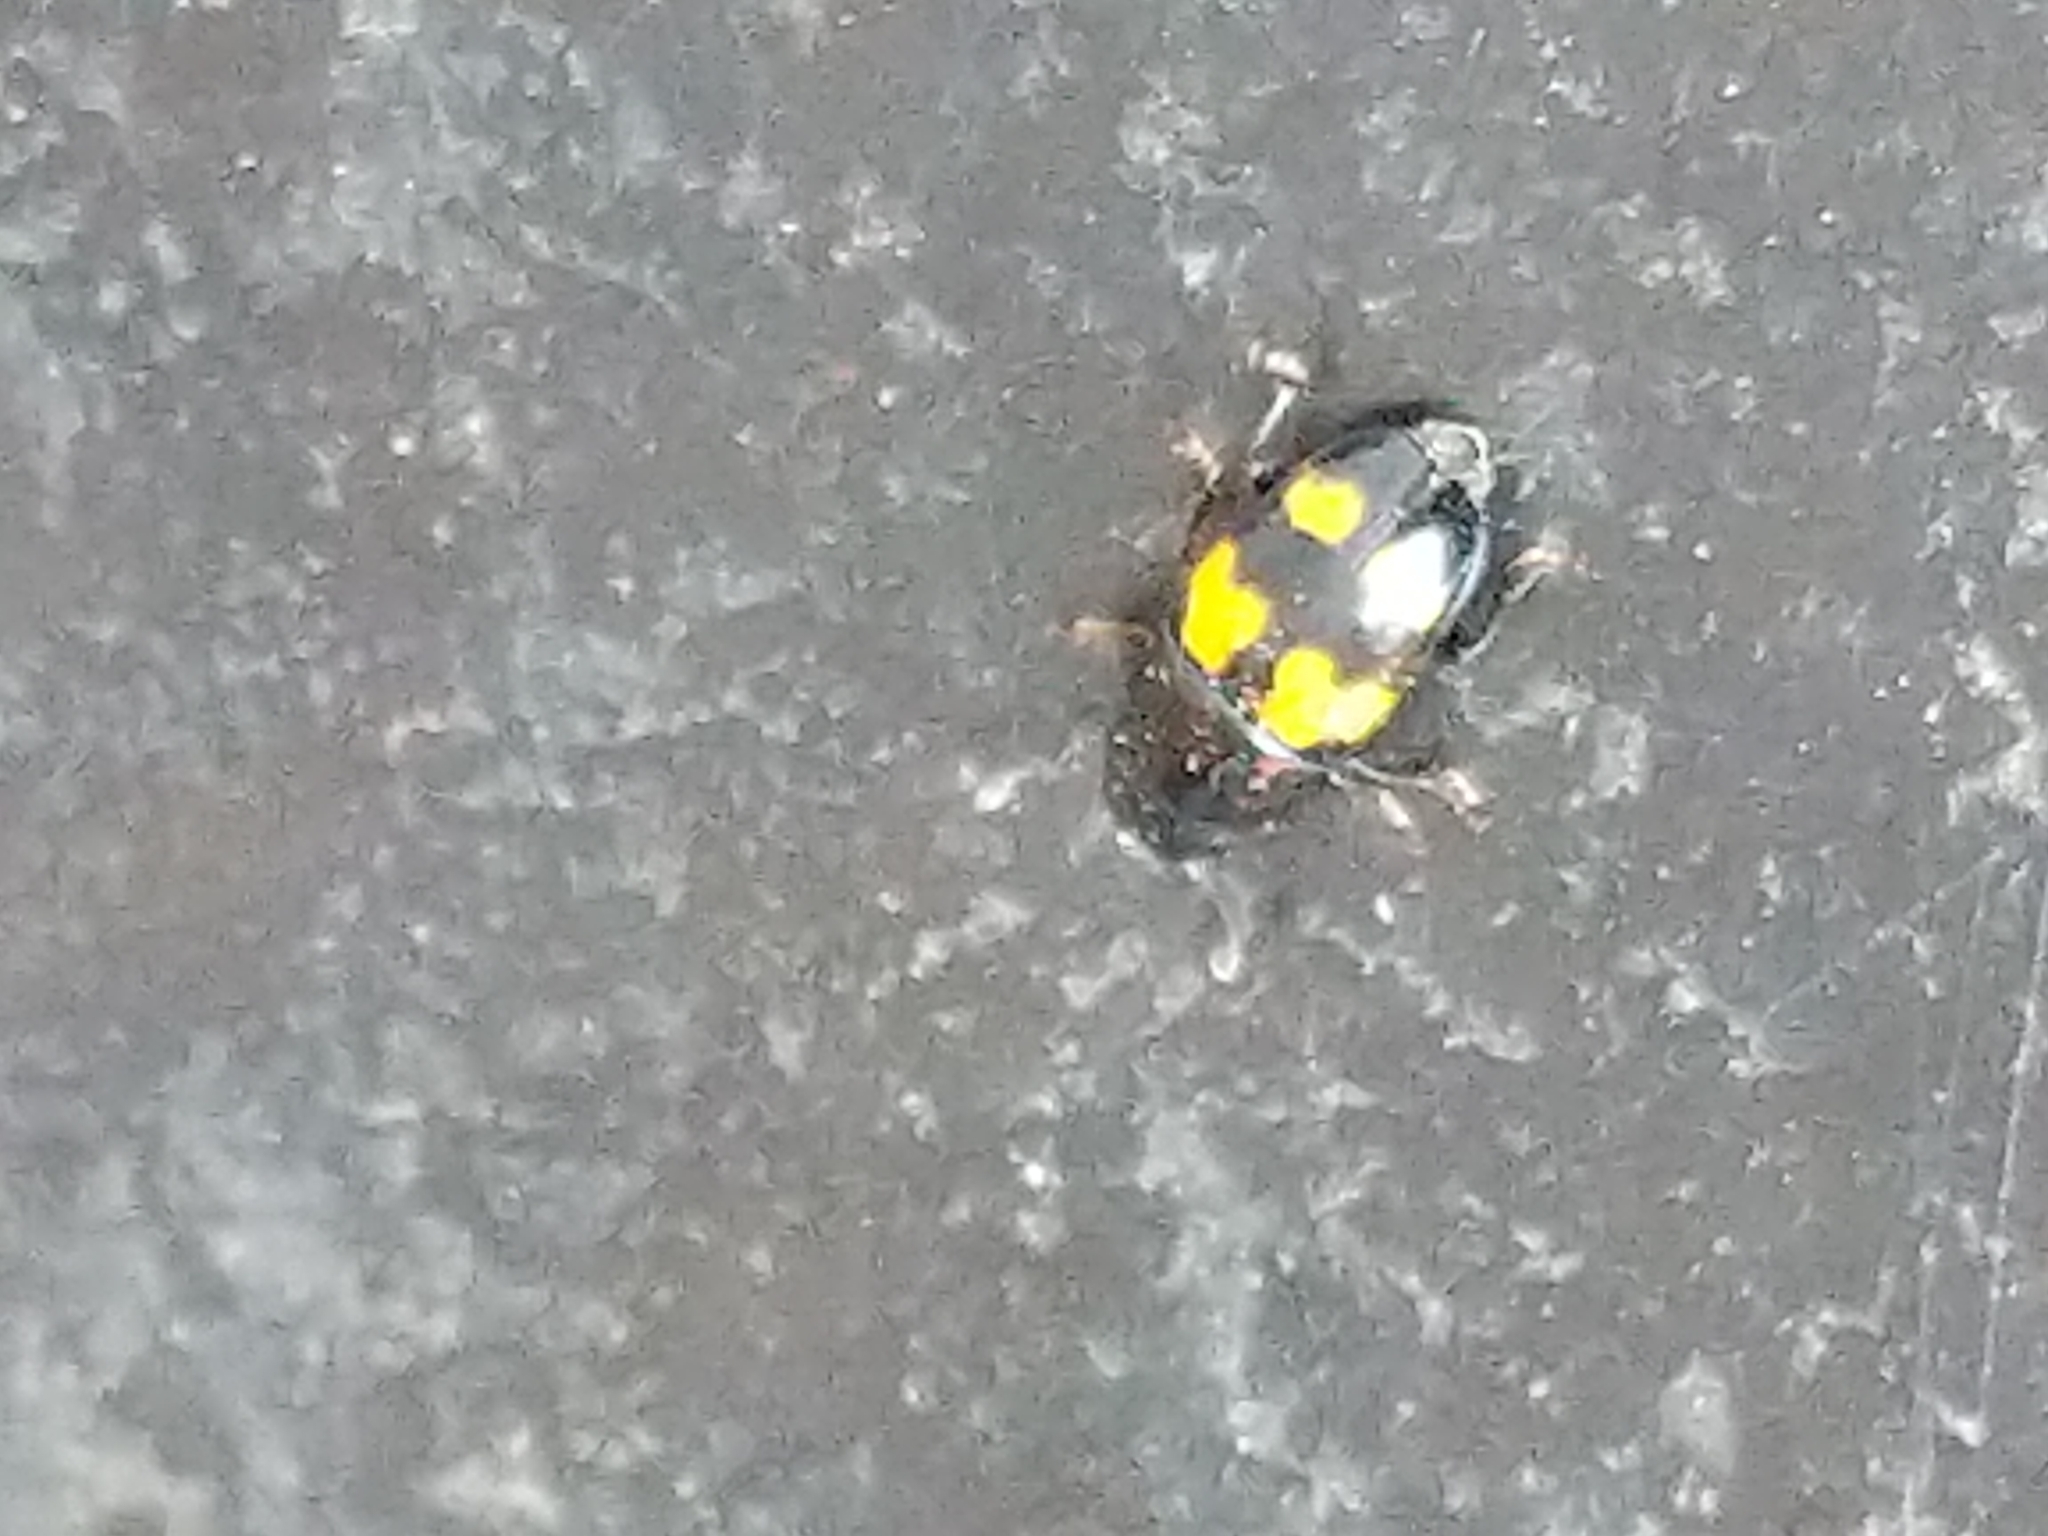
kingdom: Animalia
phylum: Arthropoda
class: Insecta
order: Coleoptera
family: Nitidulidae
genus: Glischrochilus
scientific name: Glischrochilus fasciatus
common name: Picnic beetle
